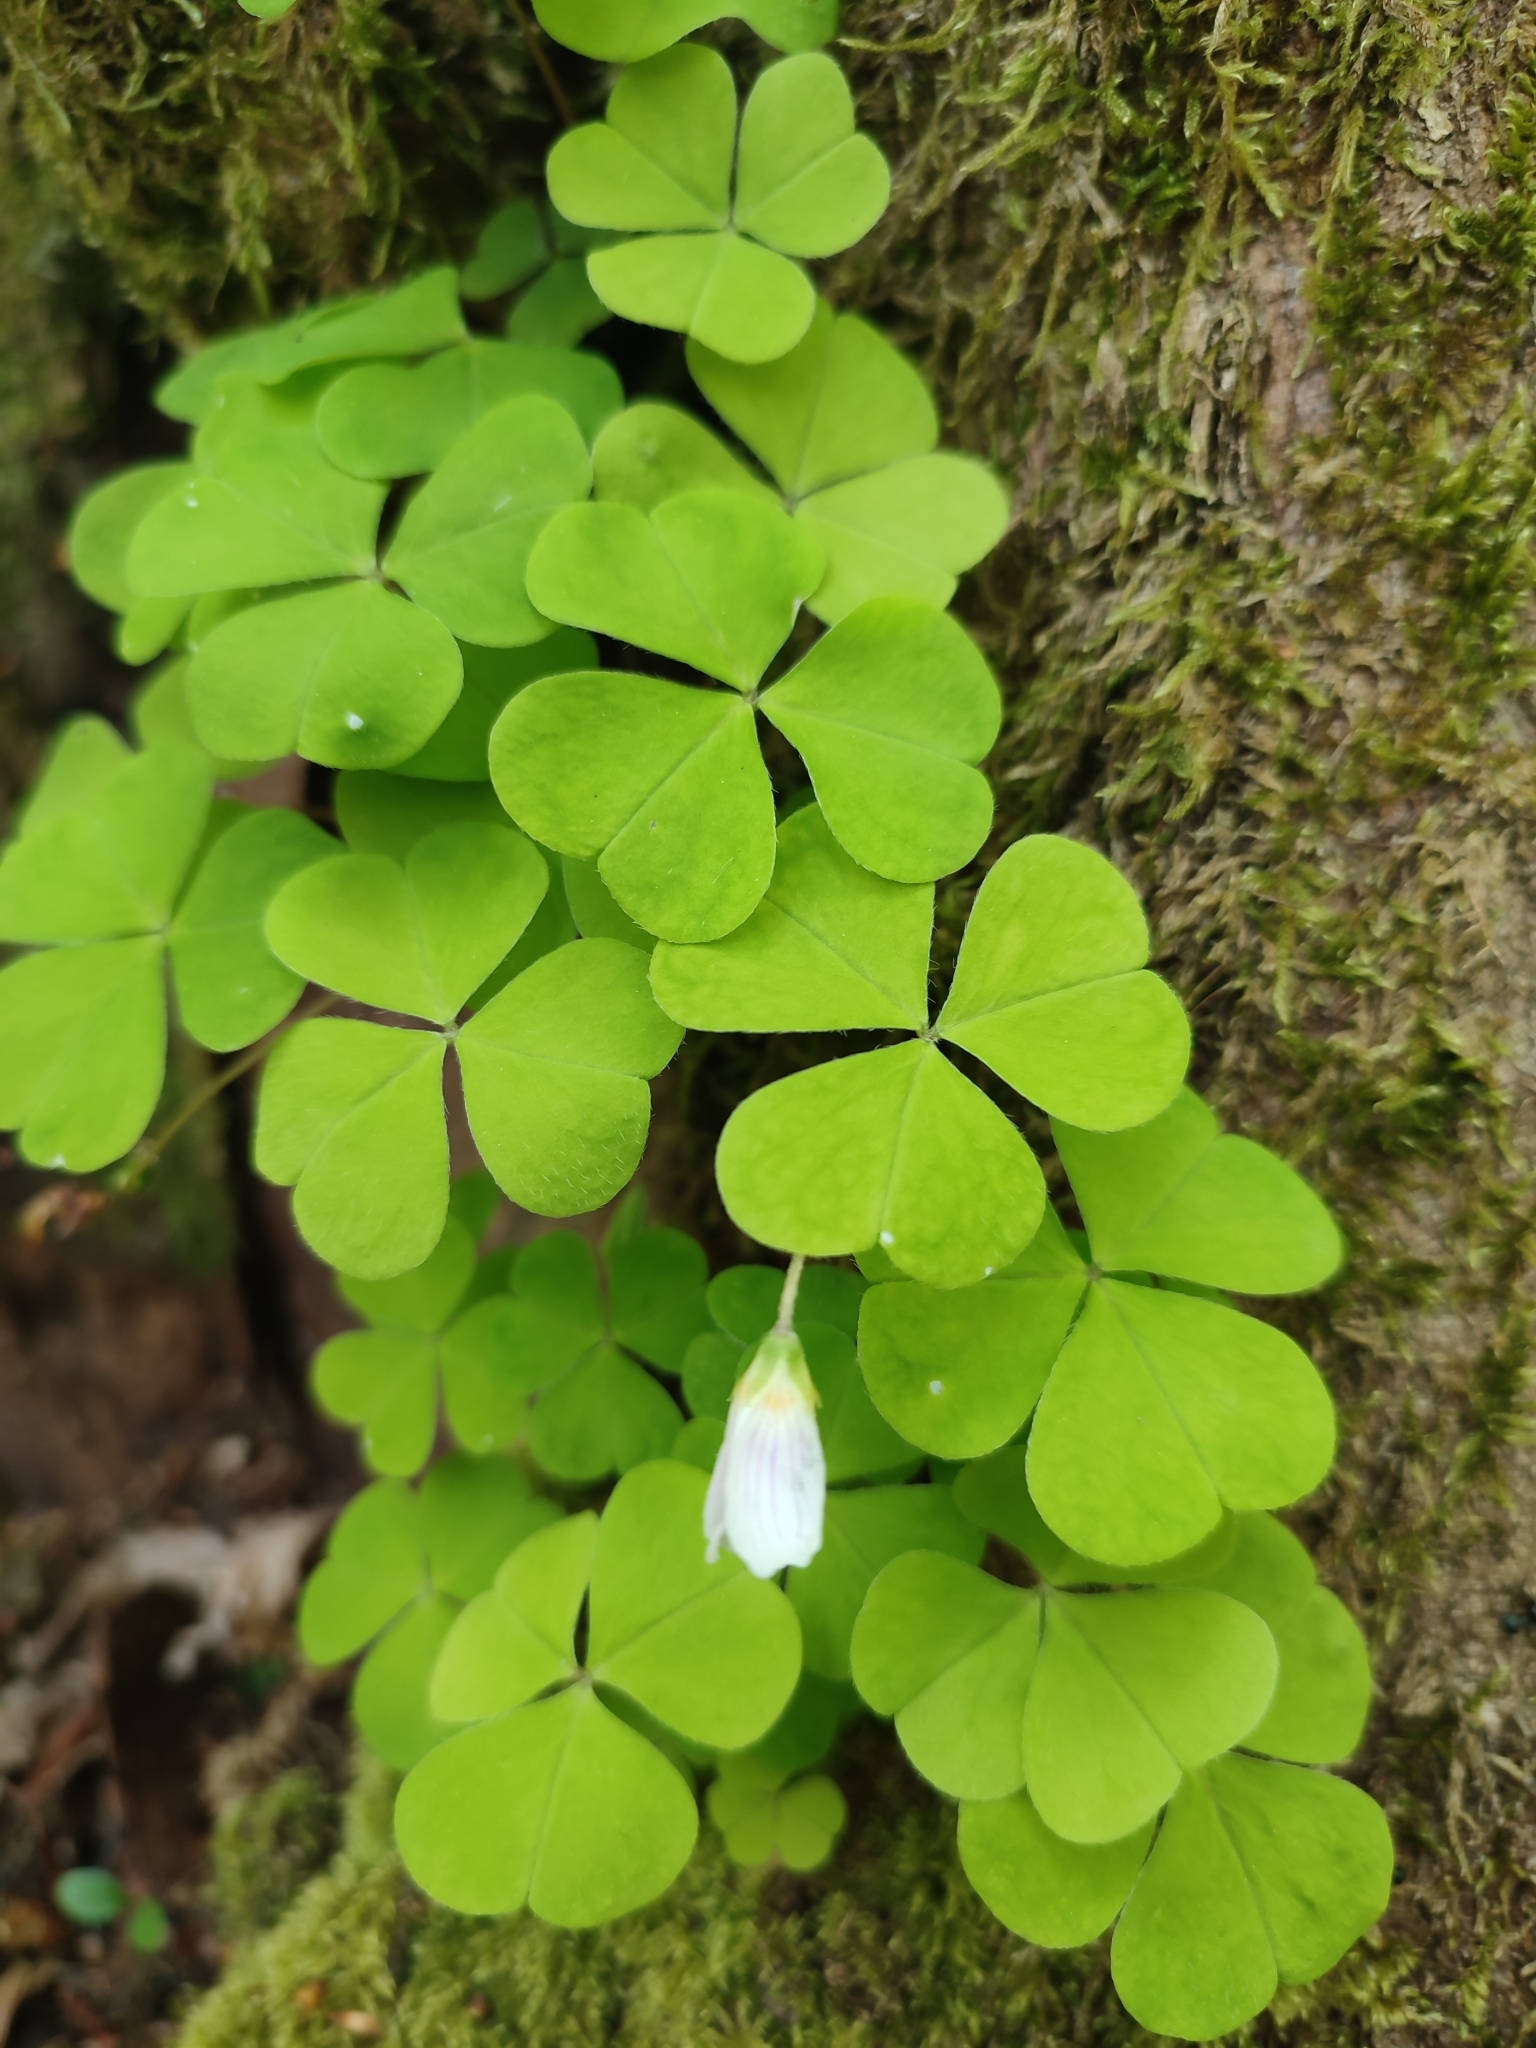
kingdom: Plantae
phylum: Tracheophyta
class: Magnoliopsida
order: Oxalidales
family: Oxalidaceae
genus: Oxalis
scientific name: Oxalis acetosella
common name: Wood-sorrel
